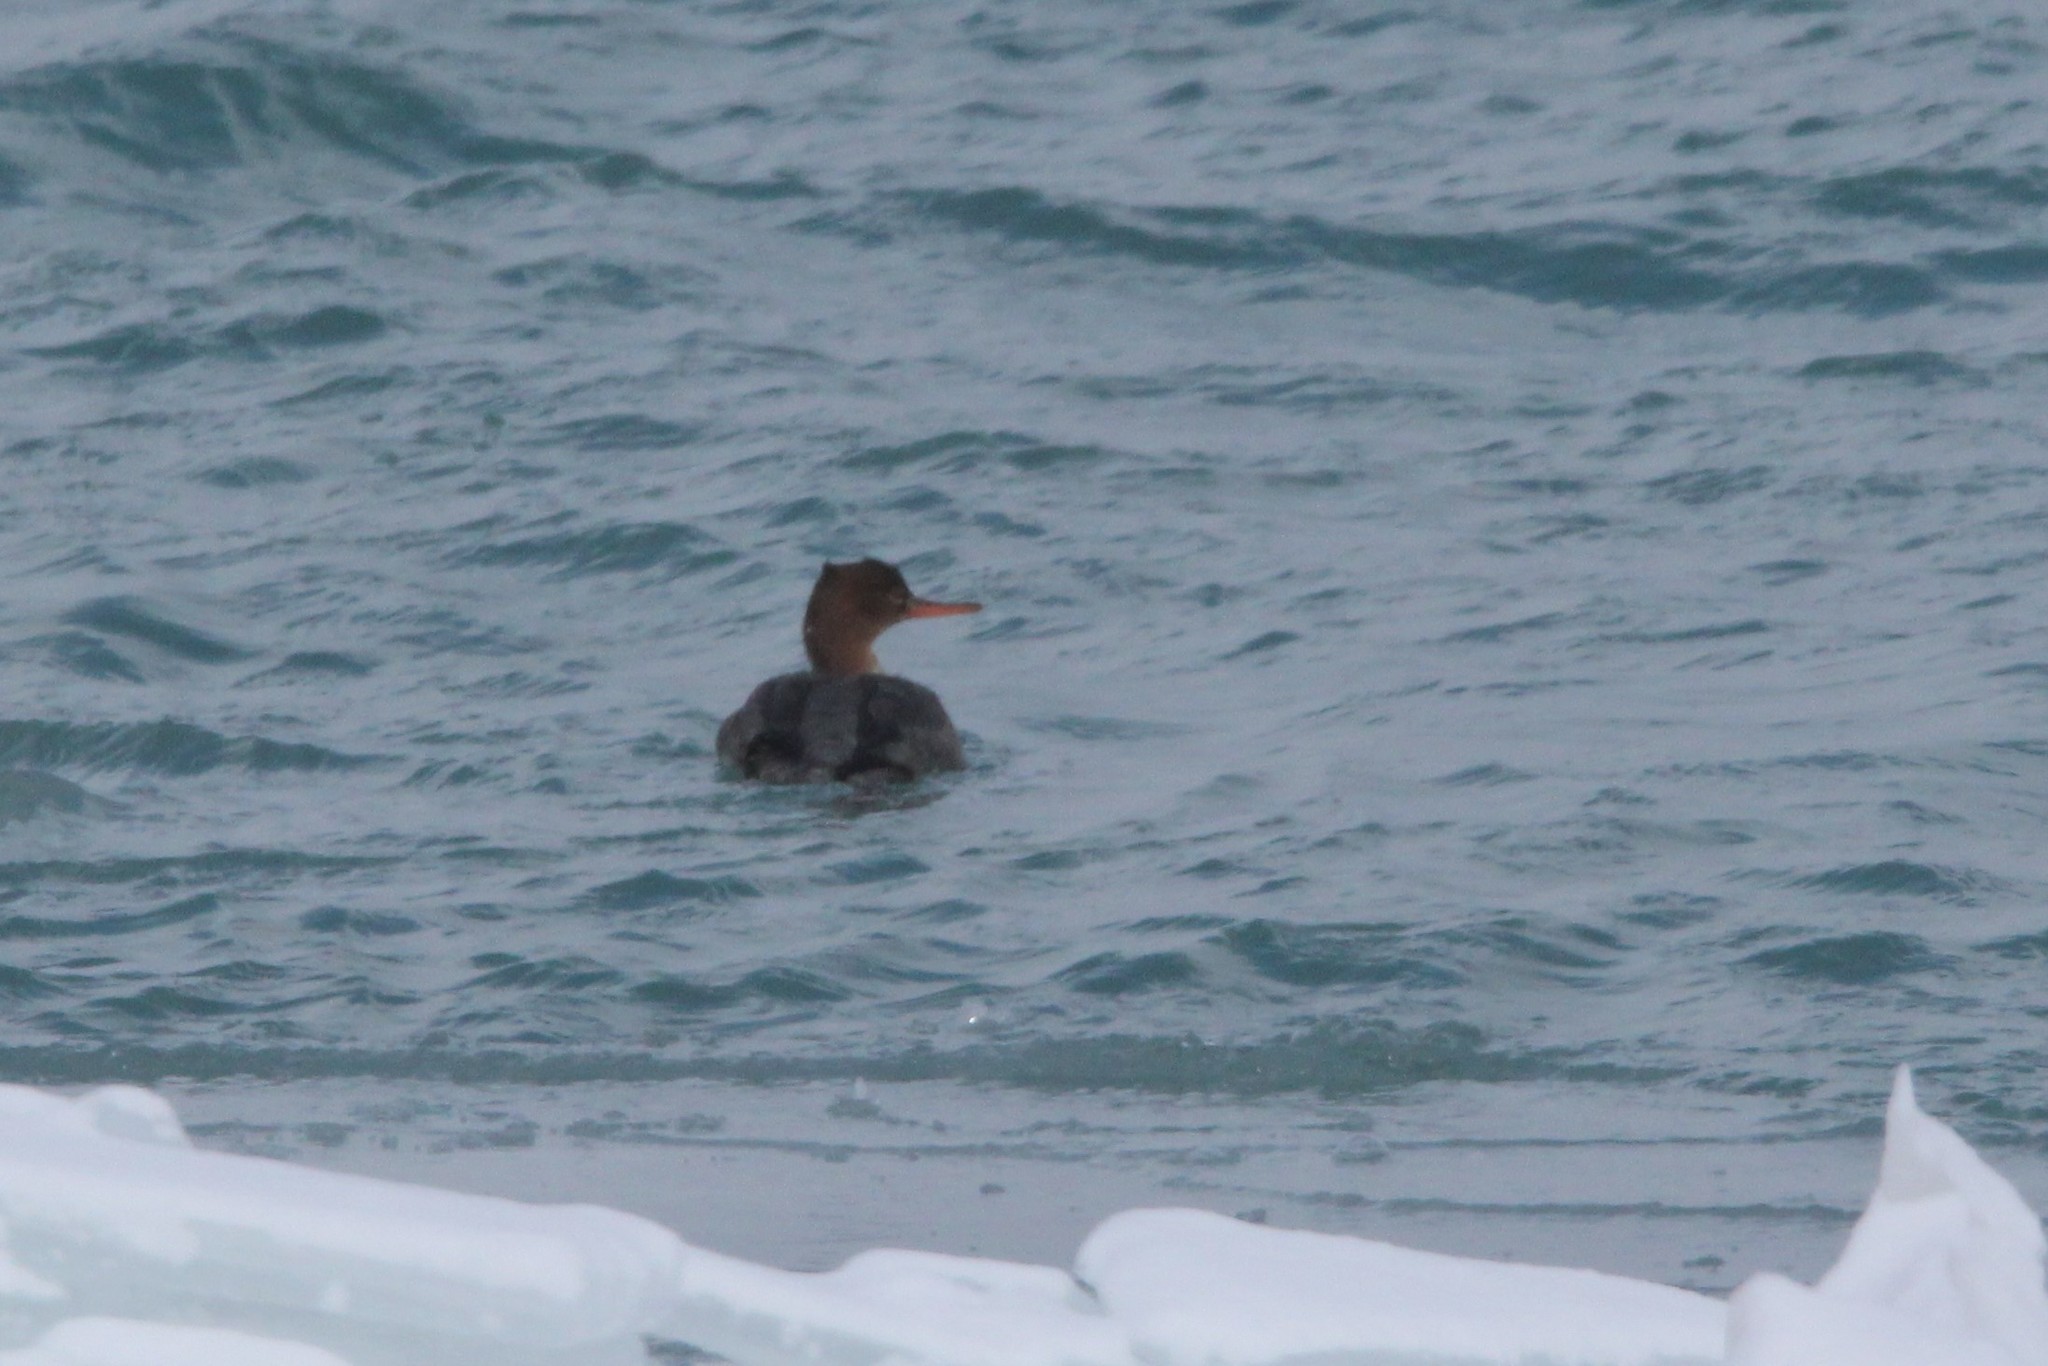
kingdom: Animalia
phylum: Chordata
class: Aves
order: Anseriformes
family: Anatidae
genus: Mergus
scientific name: Mergus serrator
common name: Red-breasted merganser
